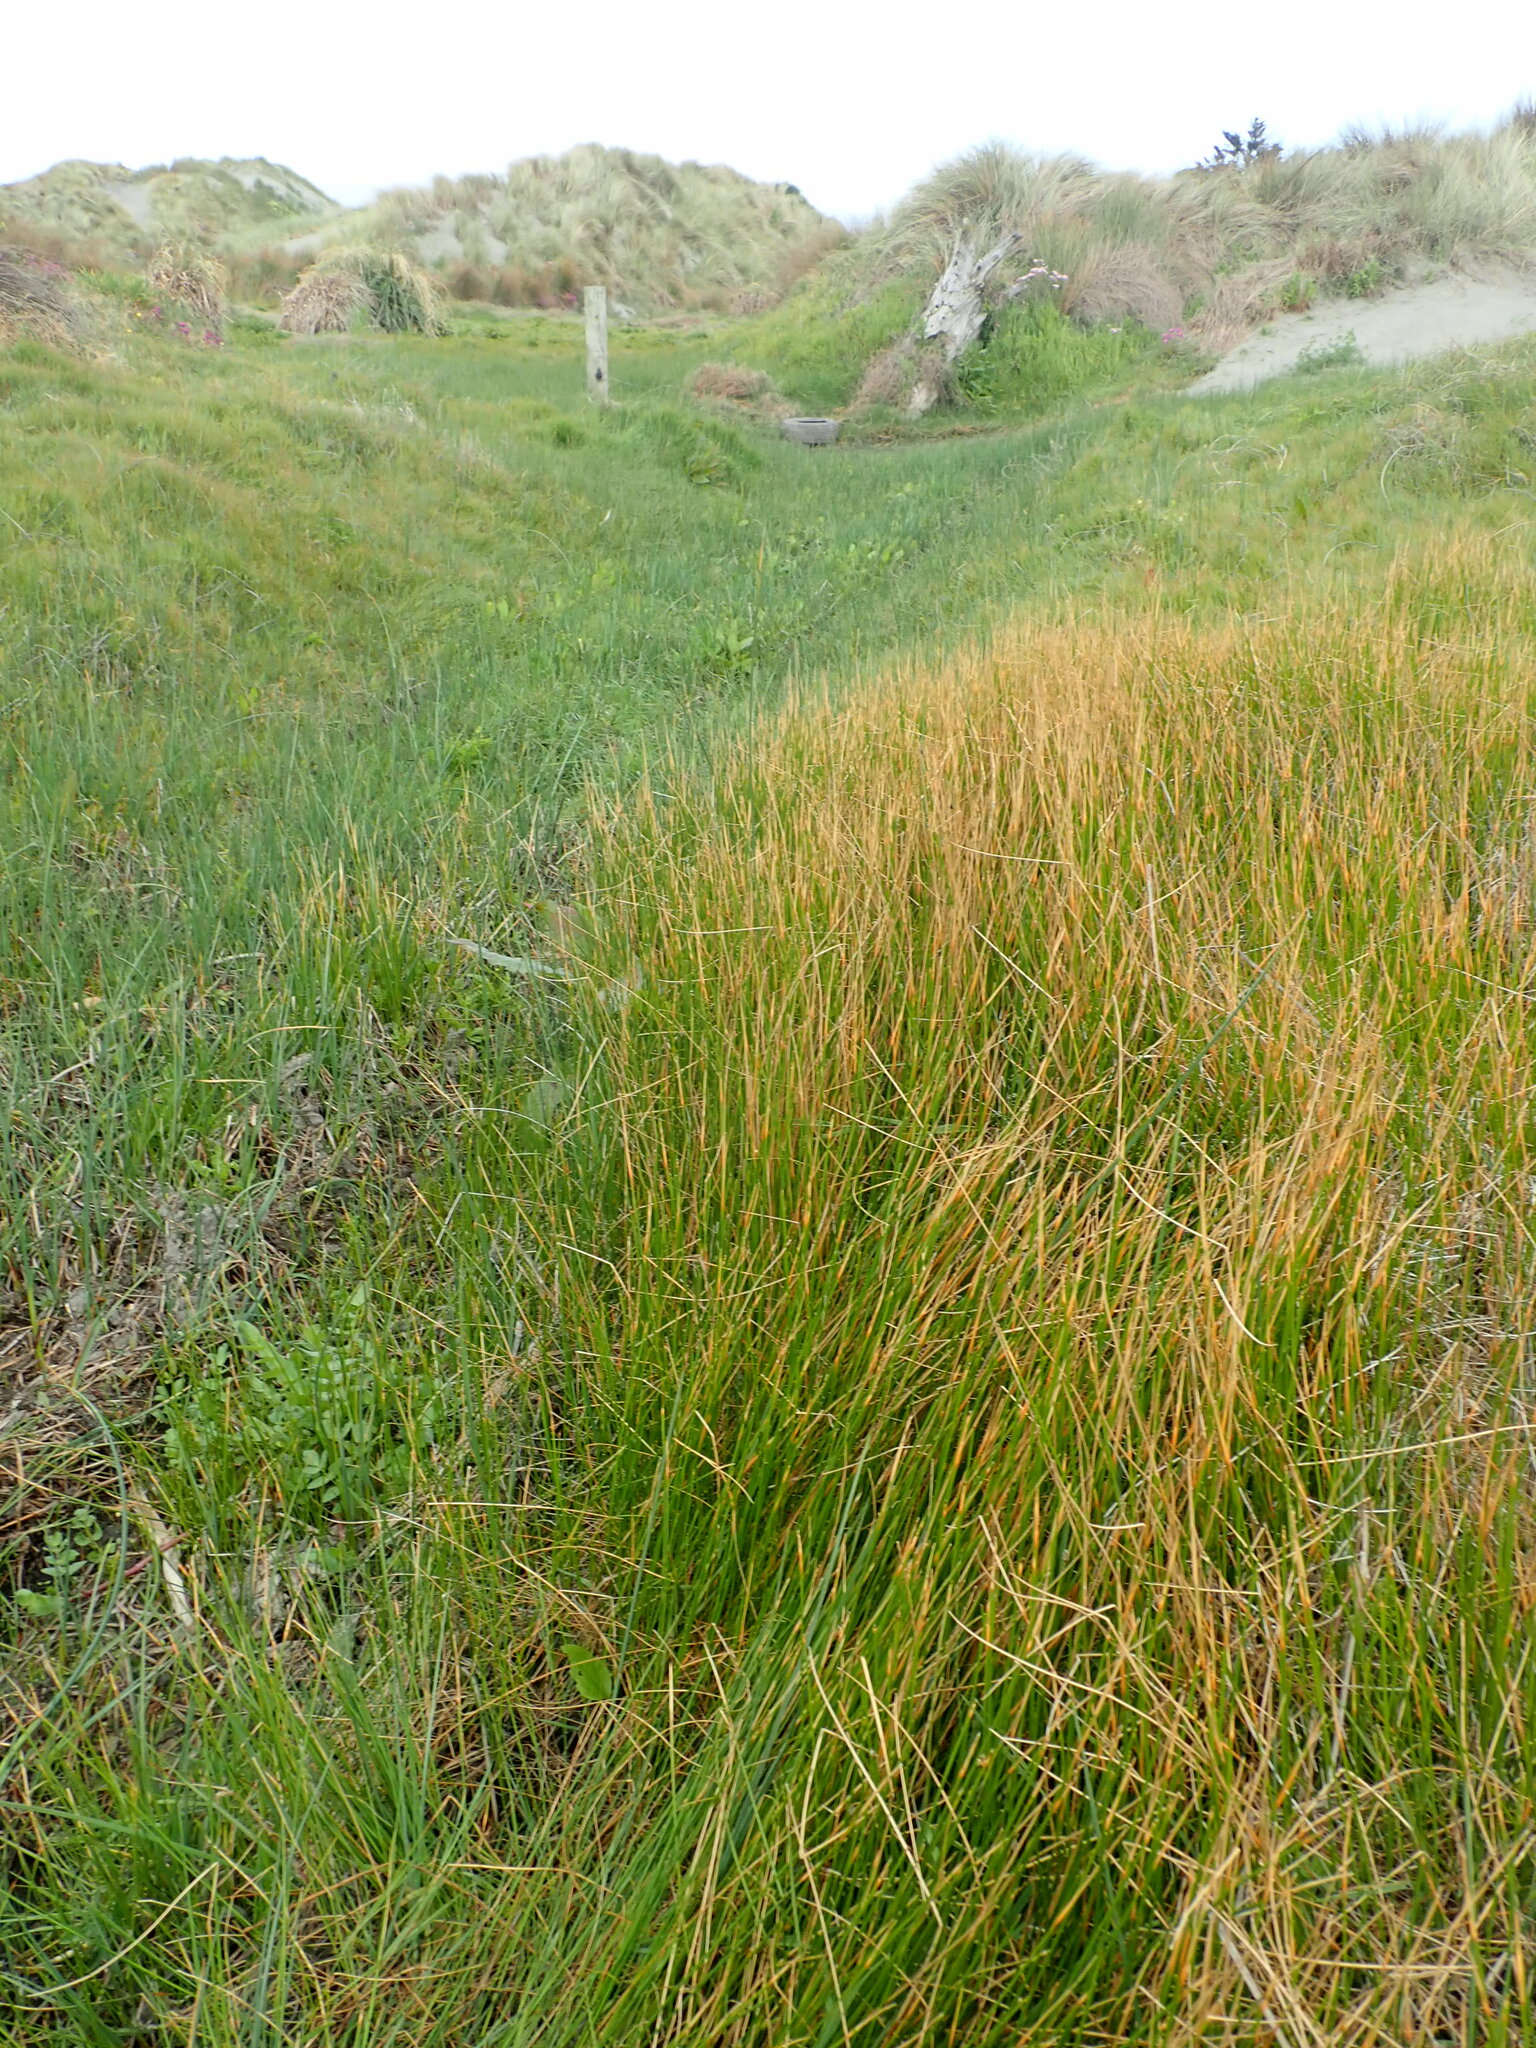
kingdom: Plantae
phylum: Tracheophyta
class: Liliopsida
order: Poales
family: Cyperaceae
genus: Eleocharis
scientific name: Eleocharis acuta
